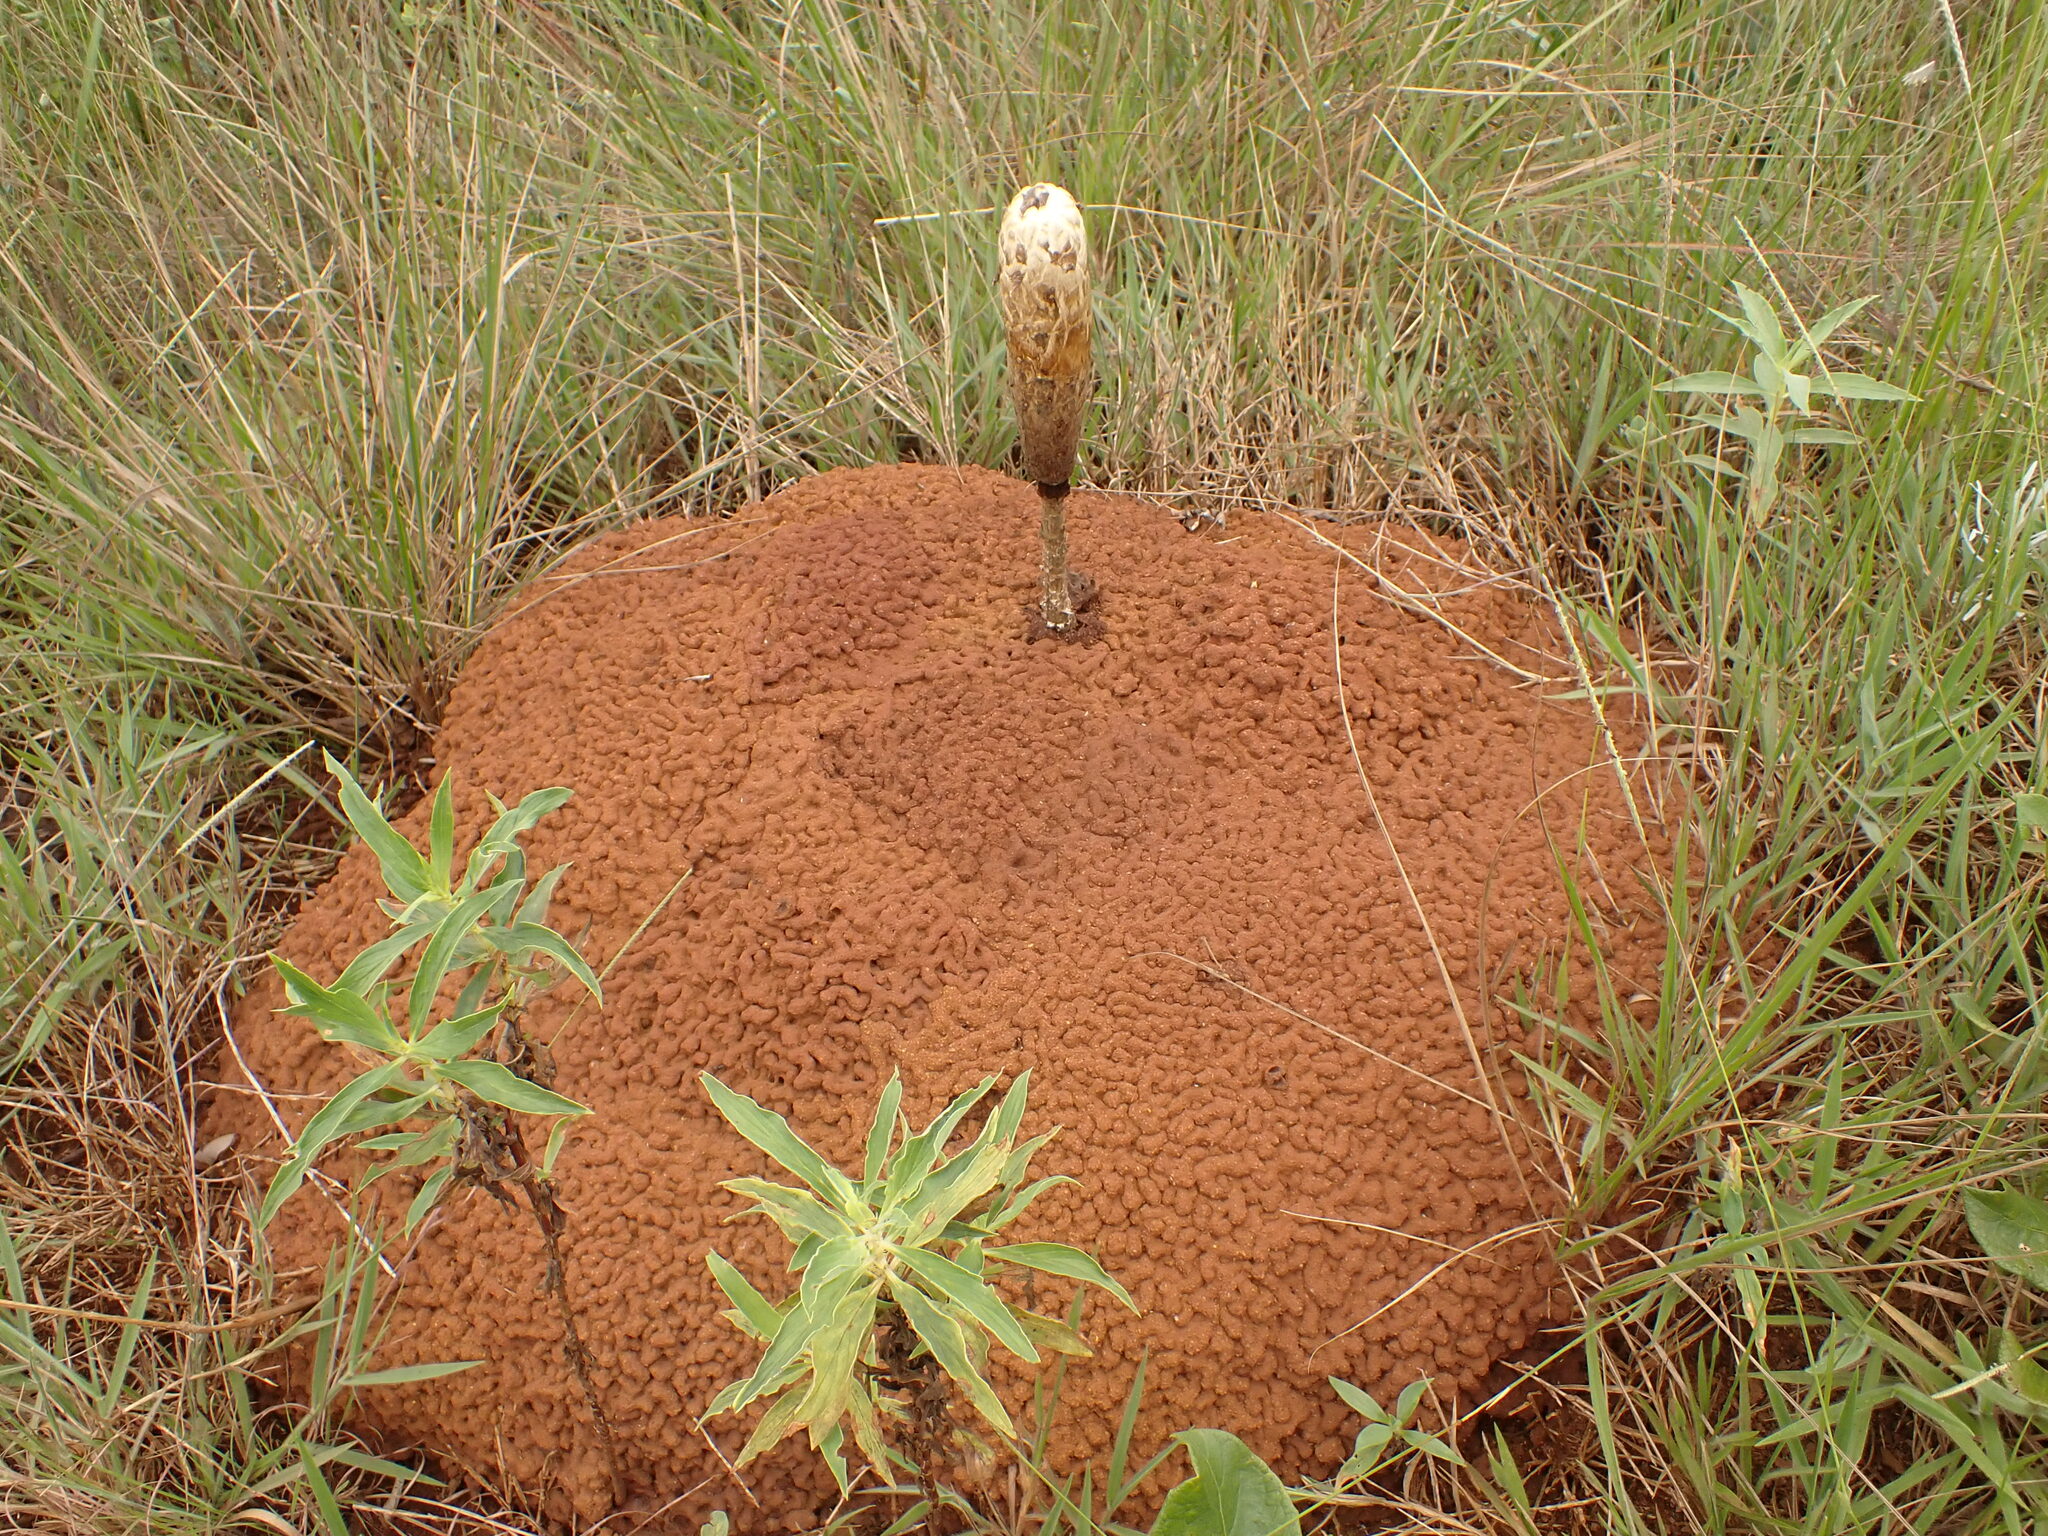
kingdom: Fungi
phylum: Basidiomycota
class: Agaricomycetes
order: Agaricales
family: Agaricaceae
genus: Podaxis
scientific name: Podaxis pistillaris
